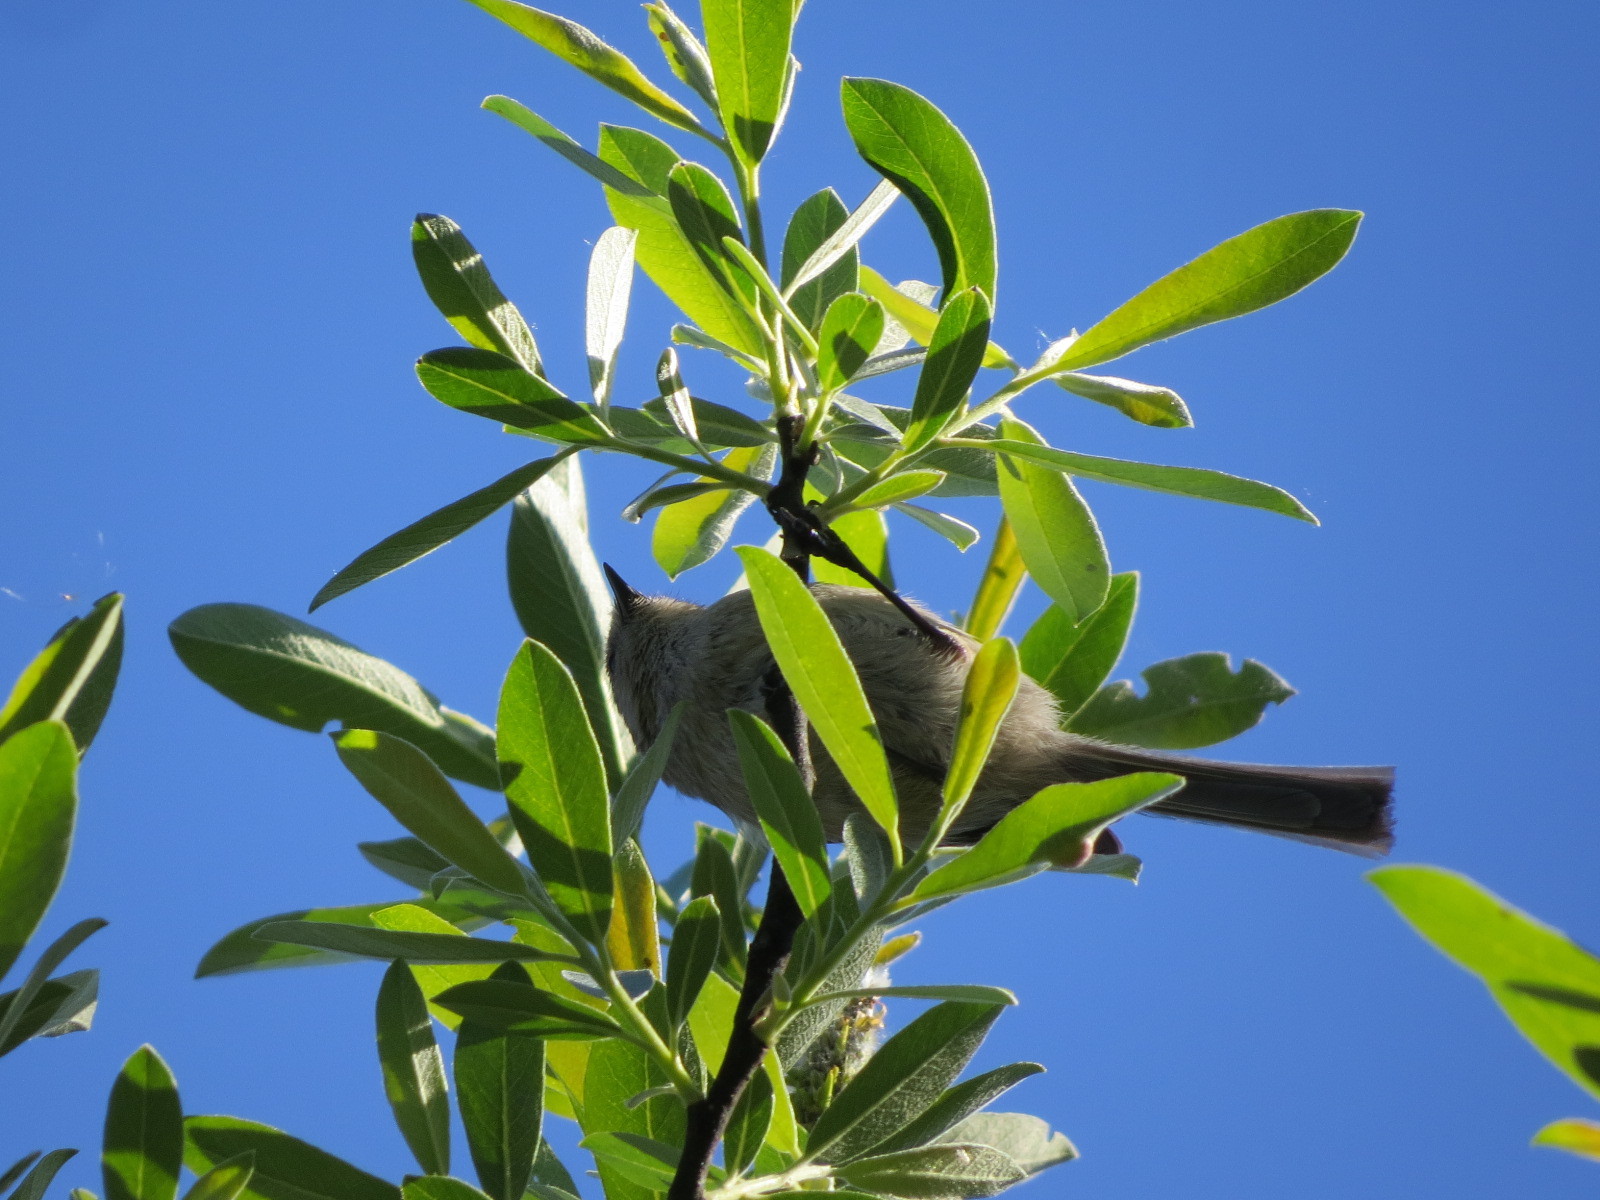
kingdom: Animalia
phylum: Chordata
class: Aves
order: Passeriformes
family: Regulidae
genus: Regulus
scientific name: Regulus calendula
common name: Ruby-crowned kinglet
